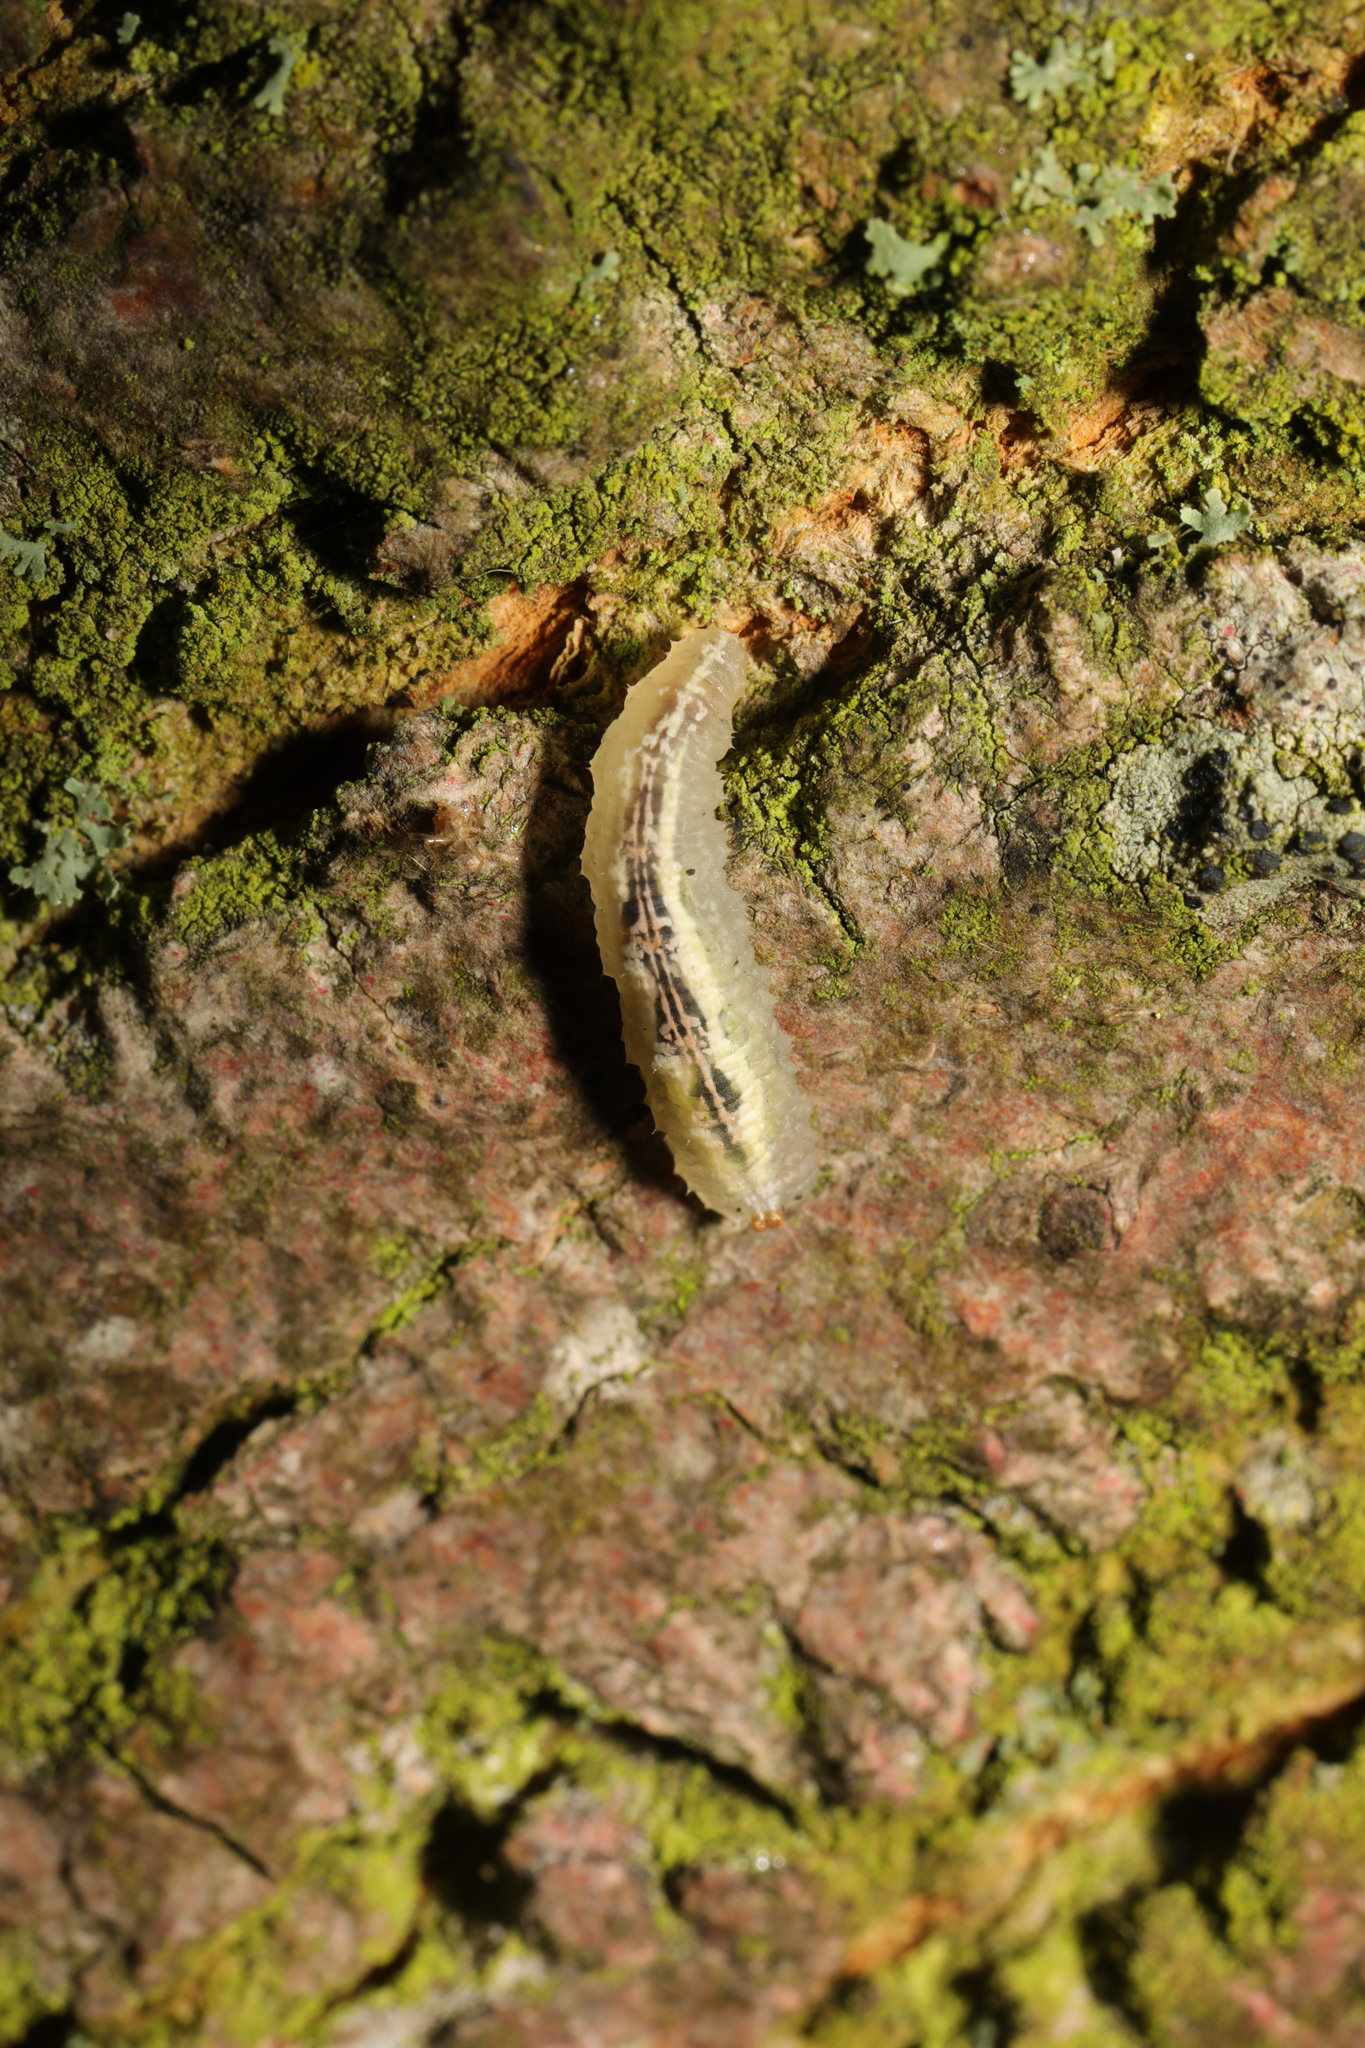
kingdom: Animalia
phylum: Arthropoda
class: Insecta
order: Diptera
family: Syrphidae
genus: Syrphus
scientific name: Syrphus
